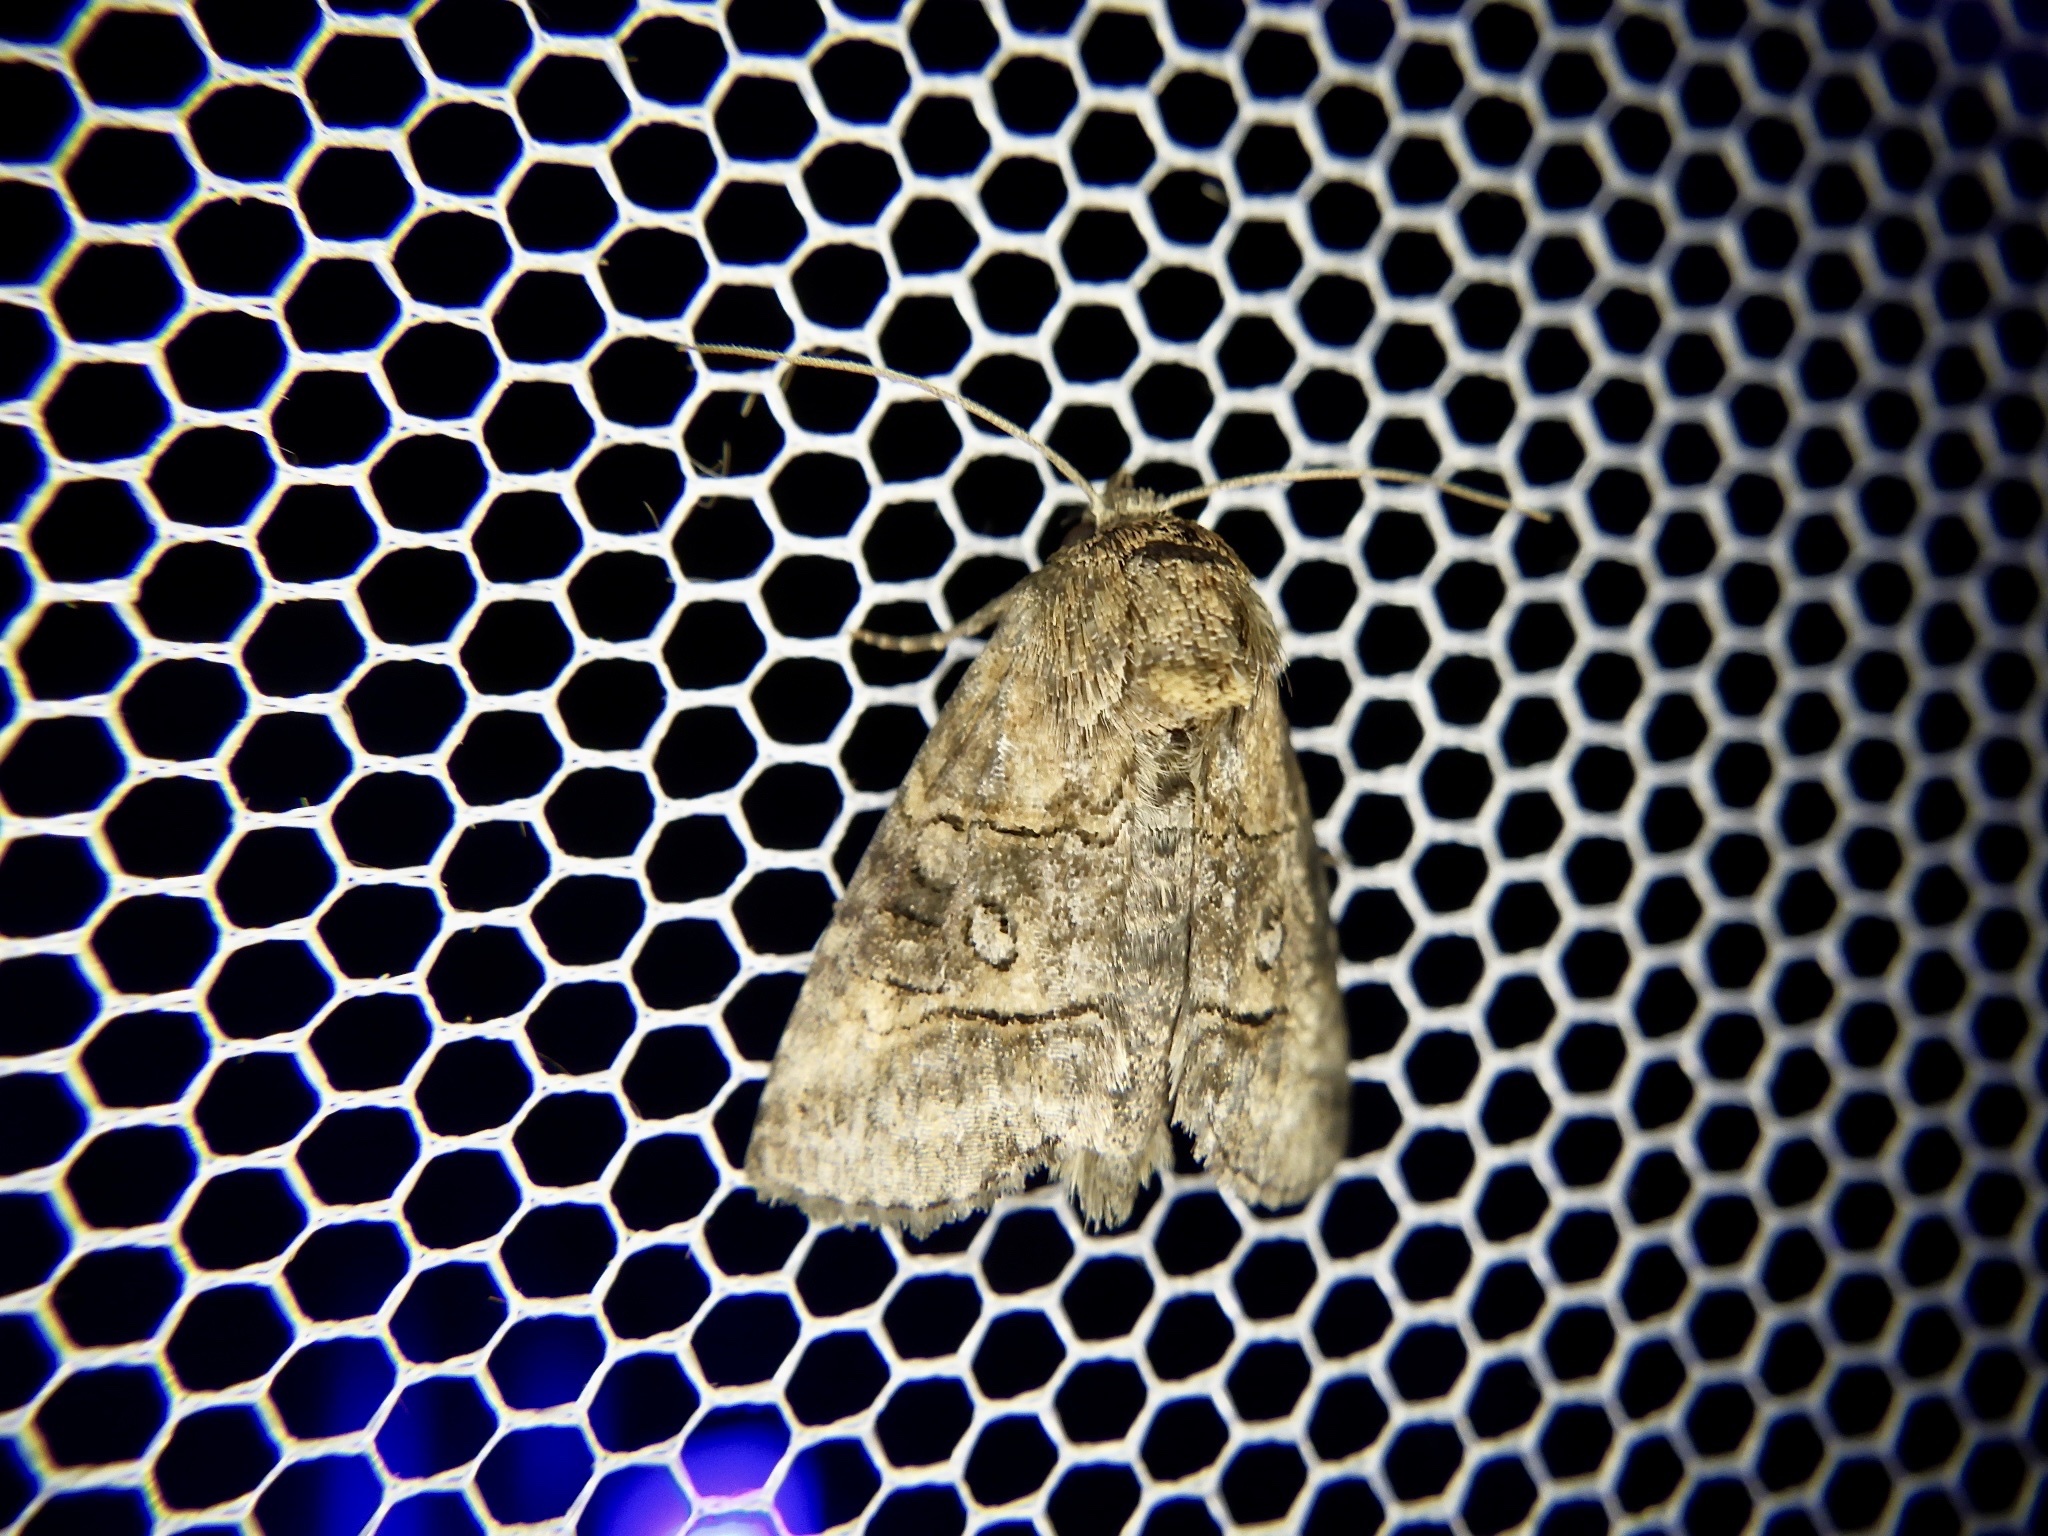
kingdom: Animalia
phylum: Arthropoda
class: Insecta
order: Lepidoptera
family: Noctuidae
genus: Abrostola
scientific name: Abrostola abrostolina
